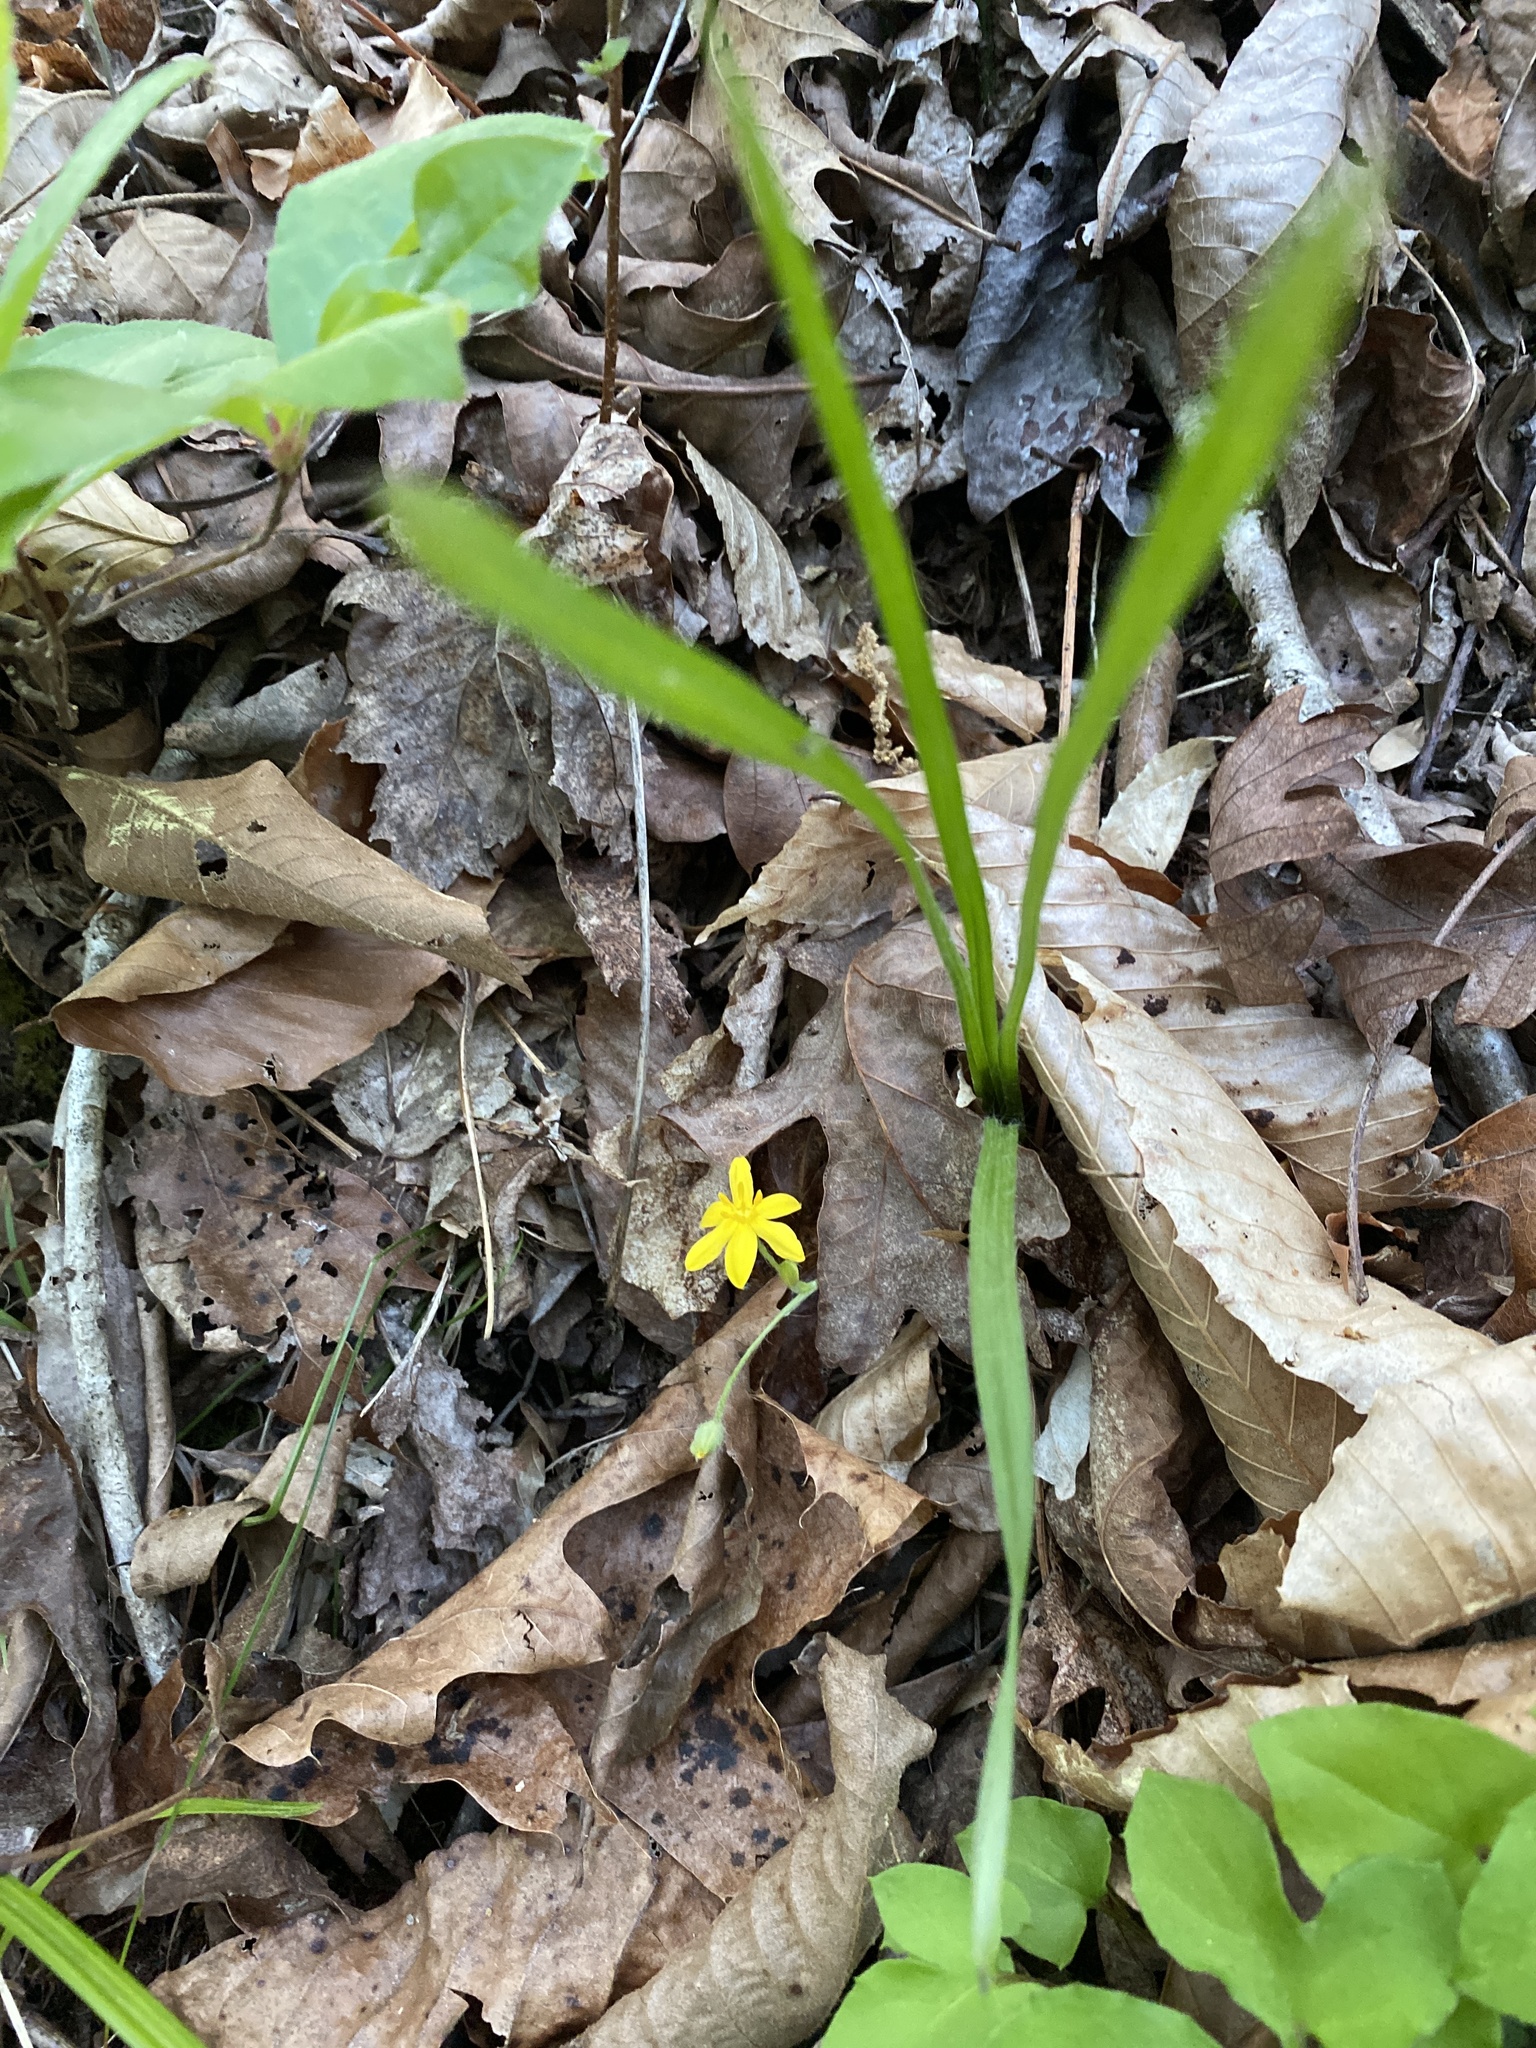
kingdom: Plantae
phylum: Tracheophyta
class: Liliopsida
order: Asparagales
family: Hypoxidaceae
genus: Hypoxis
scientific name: Hypoxis hirsuta
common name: Common goldstar
